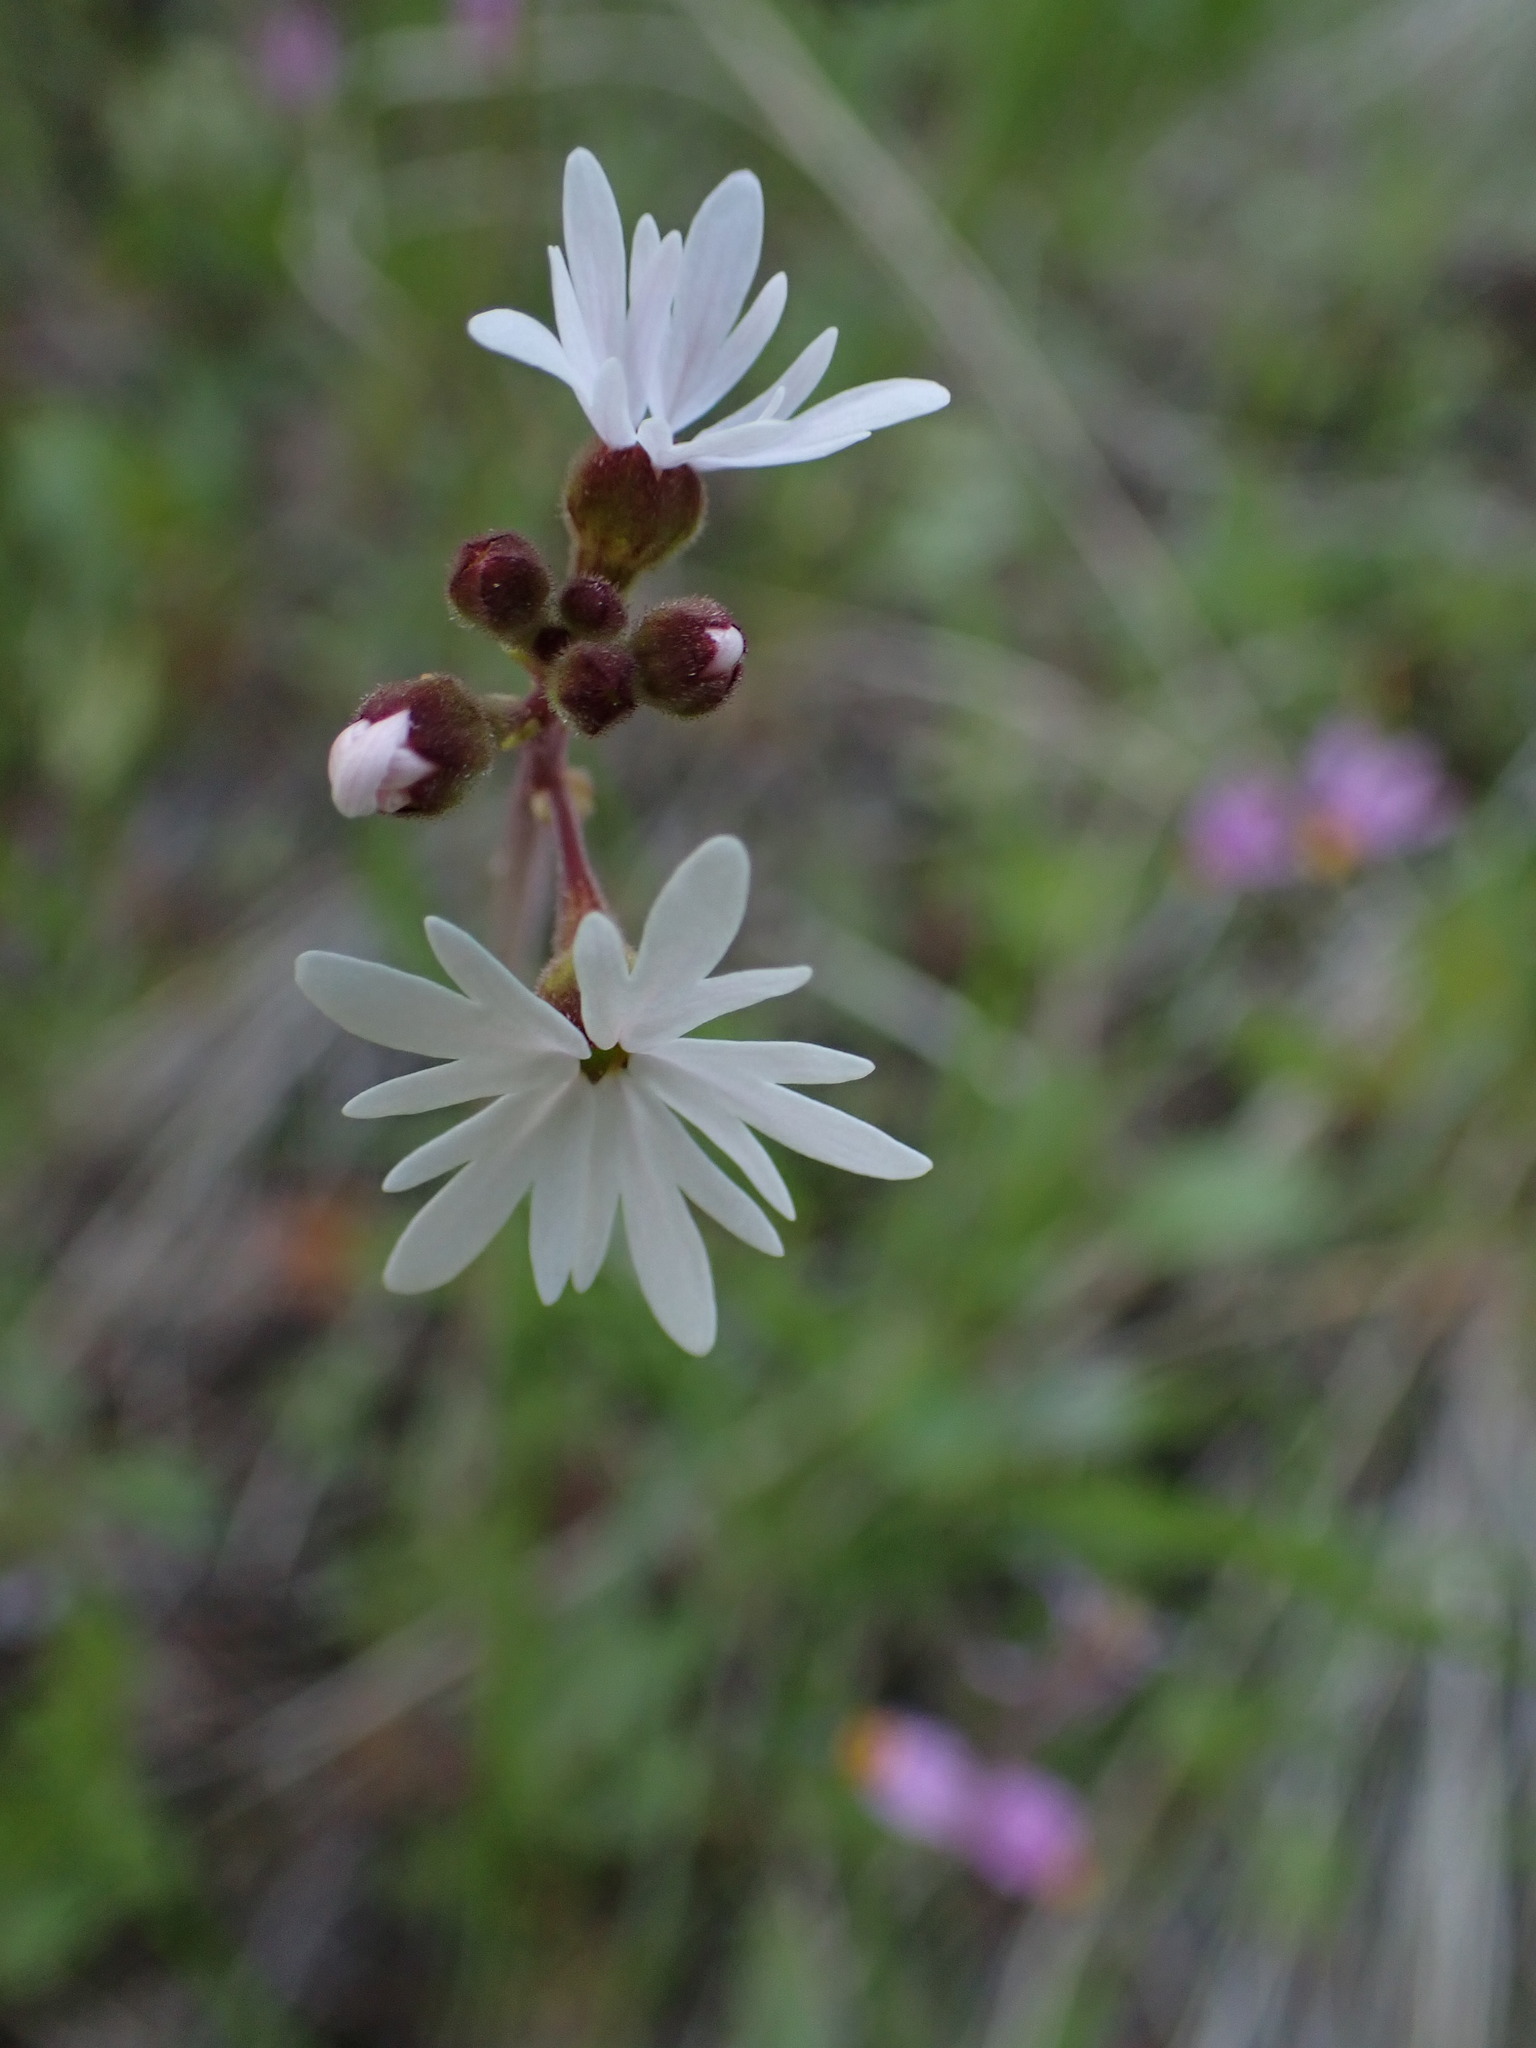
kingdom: Plantae
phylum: Tracheophyta
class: Magnoliopsida
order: Saxifragales
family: Saxifragaceae
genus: Lithophragma
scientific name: Lithophragma parviflorum
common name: Small-flowered fringe-cup
